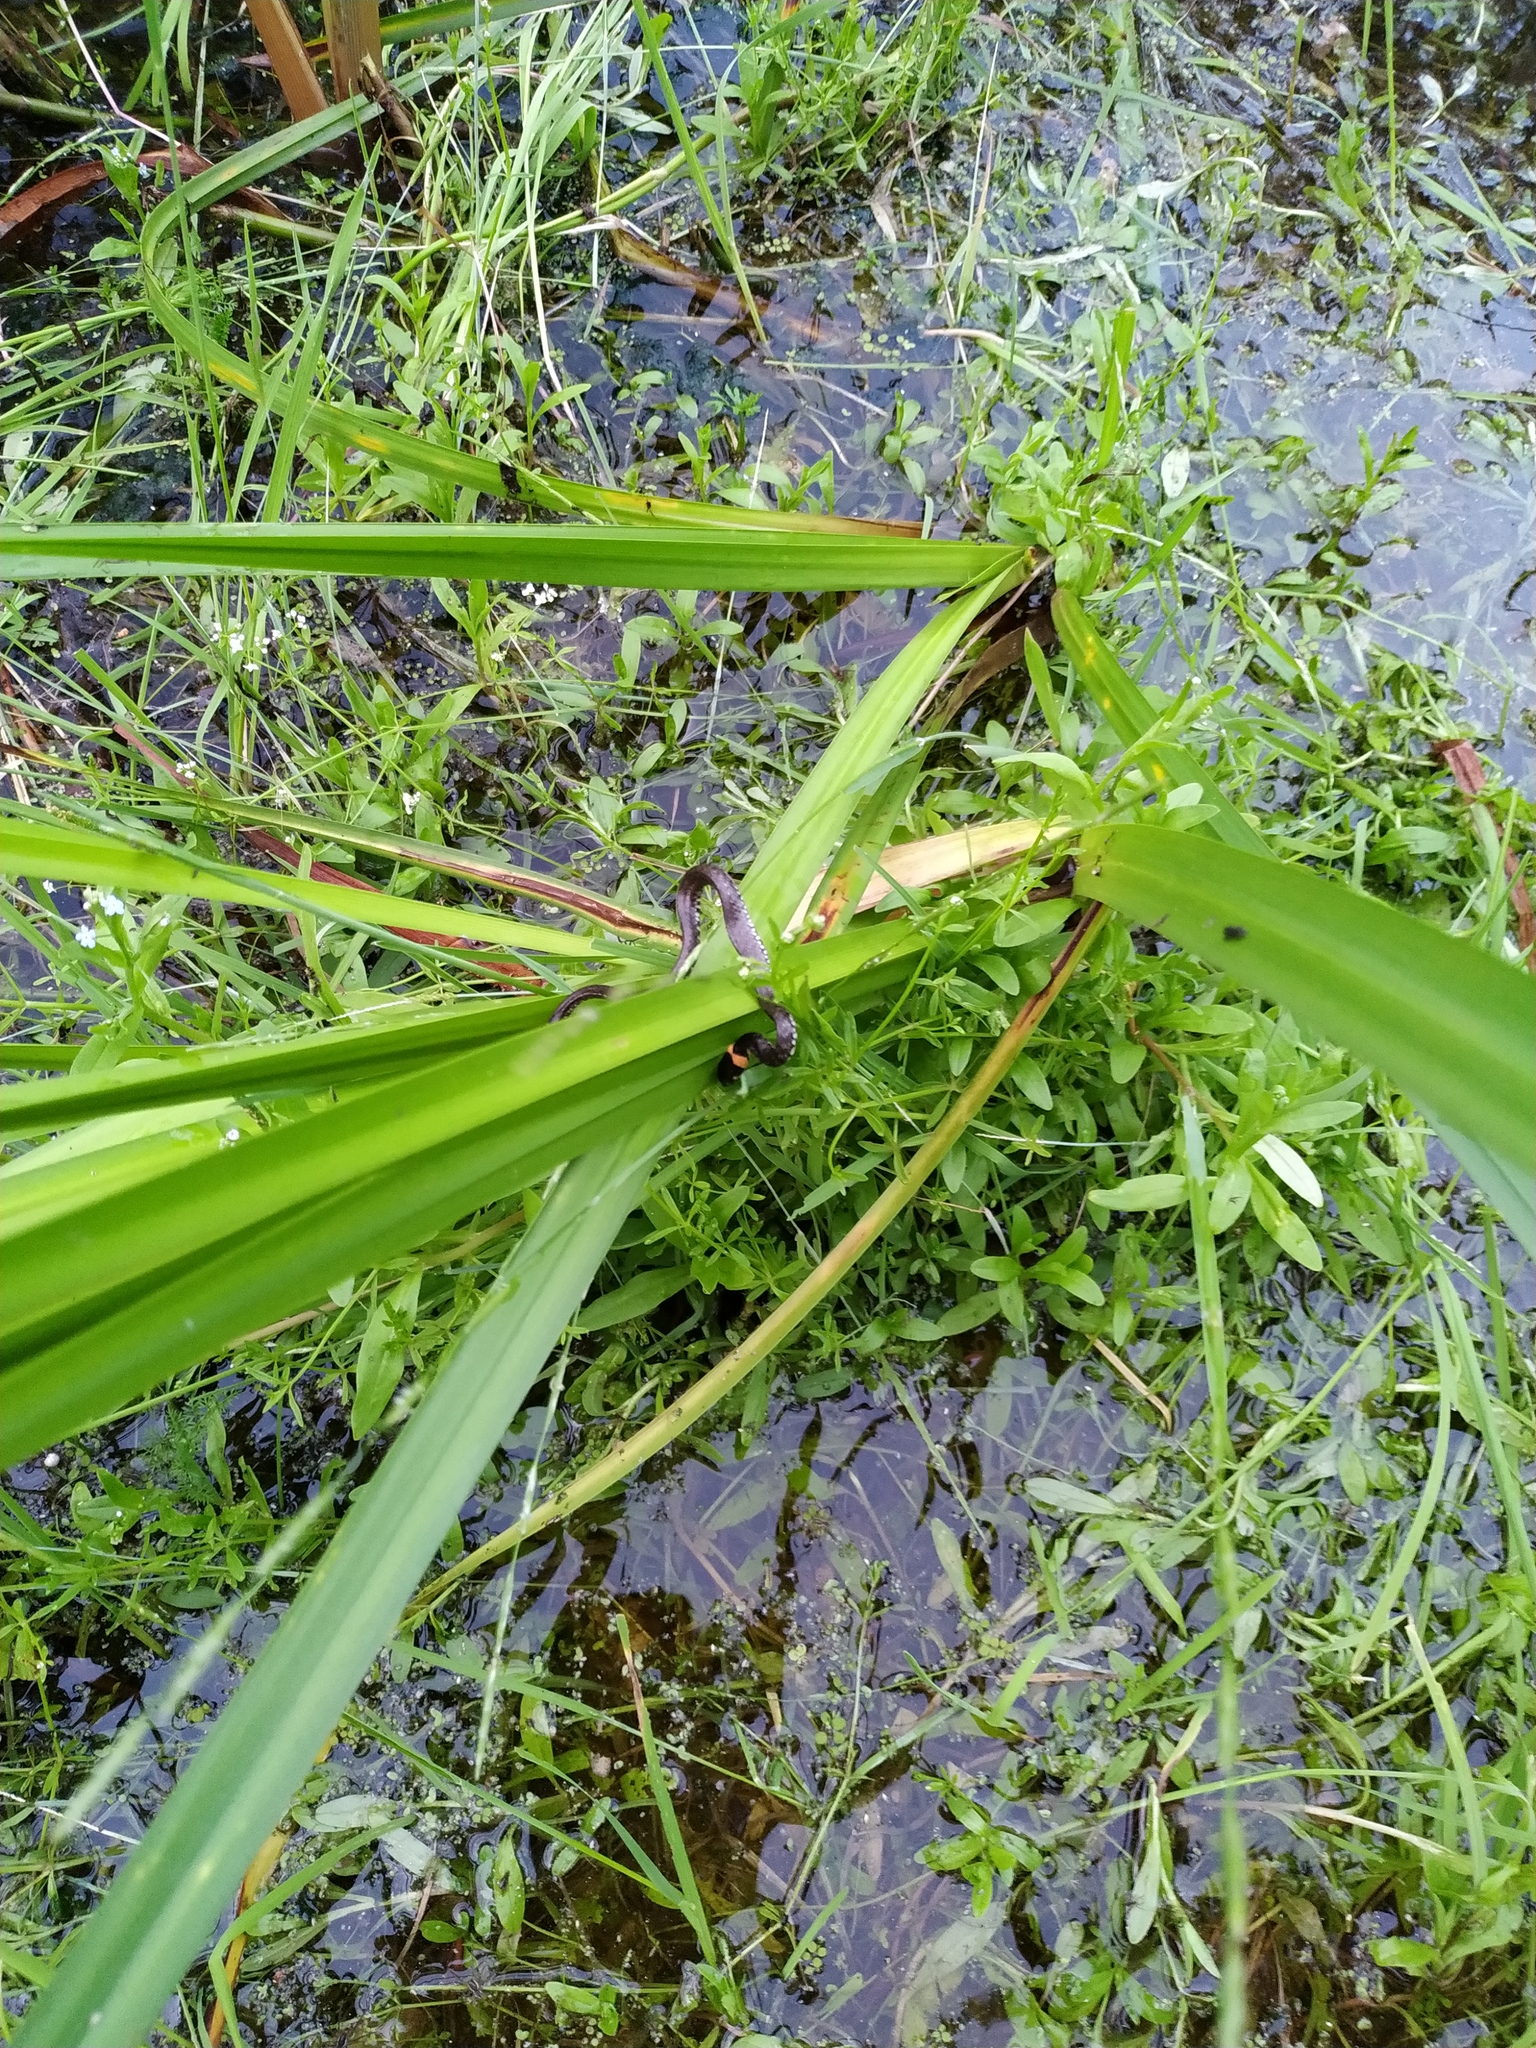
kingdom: Animalia
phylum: Chordata
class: Squamata
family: Colubridae
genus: Natrix
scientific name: Natrix natrix
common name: Grass snake
